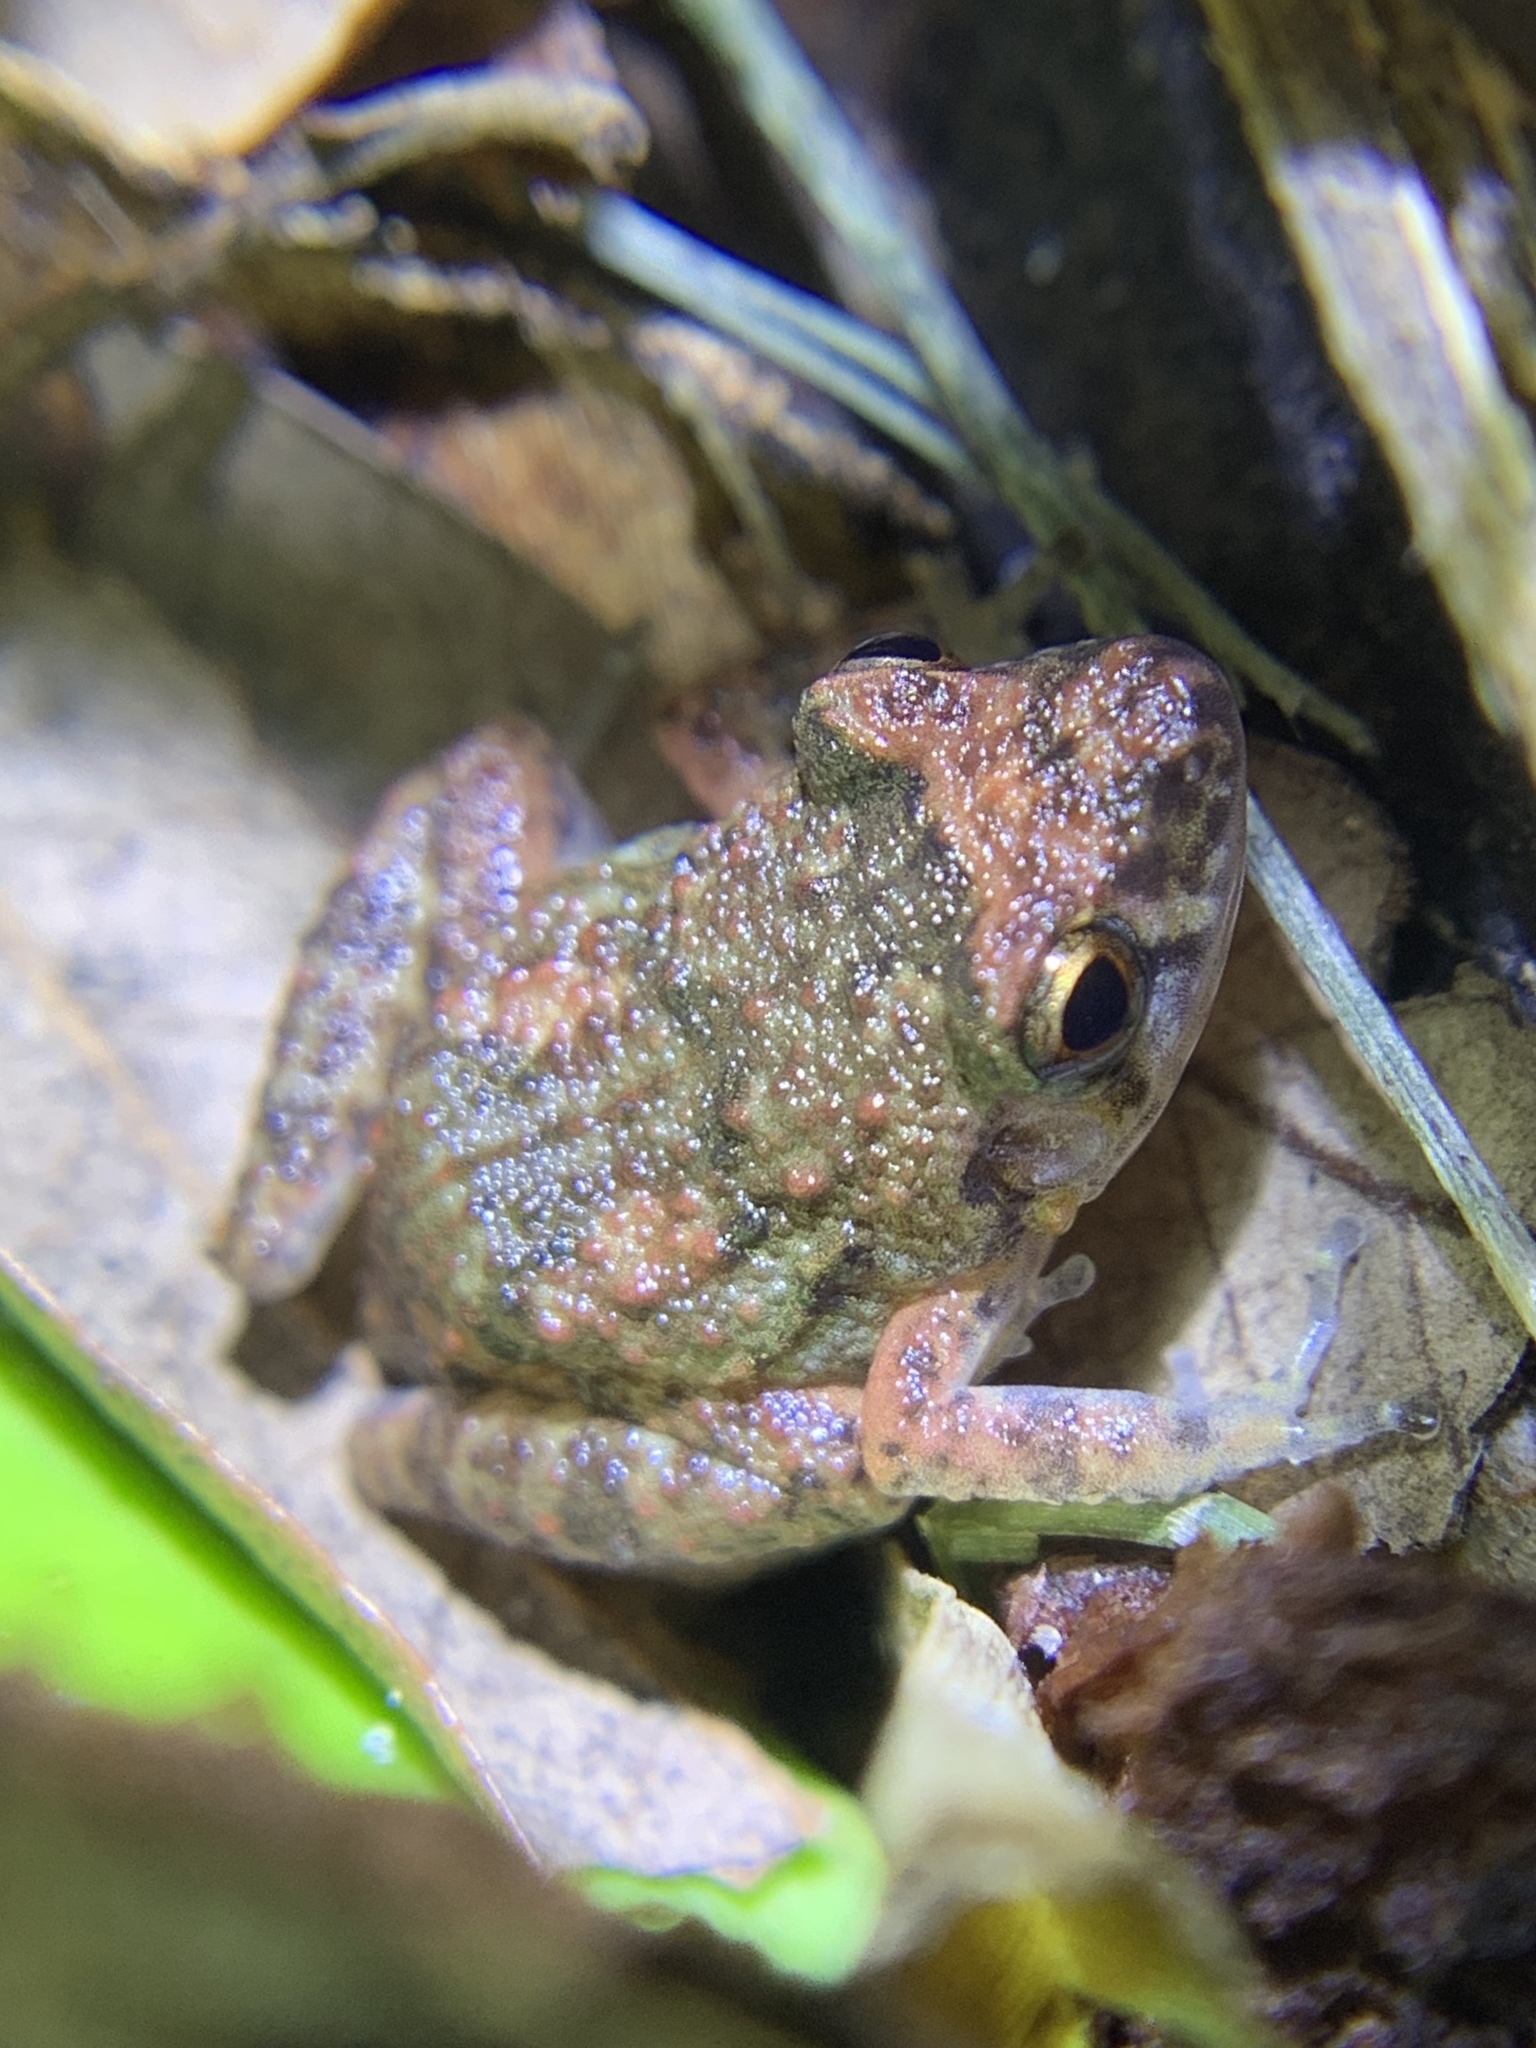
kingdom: Animalia
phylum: Chordata
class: Amphibia
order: Anura
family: Eleutherodactylidae
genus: Eleutherodactylus
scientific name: Eleutherodactylus planirostris
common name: Greenhouse frog
